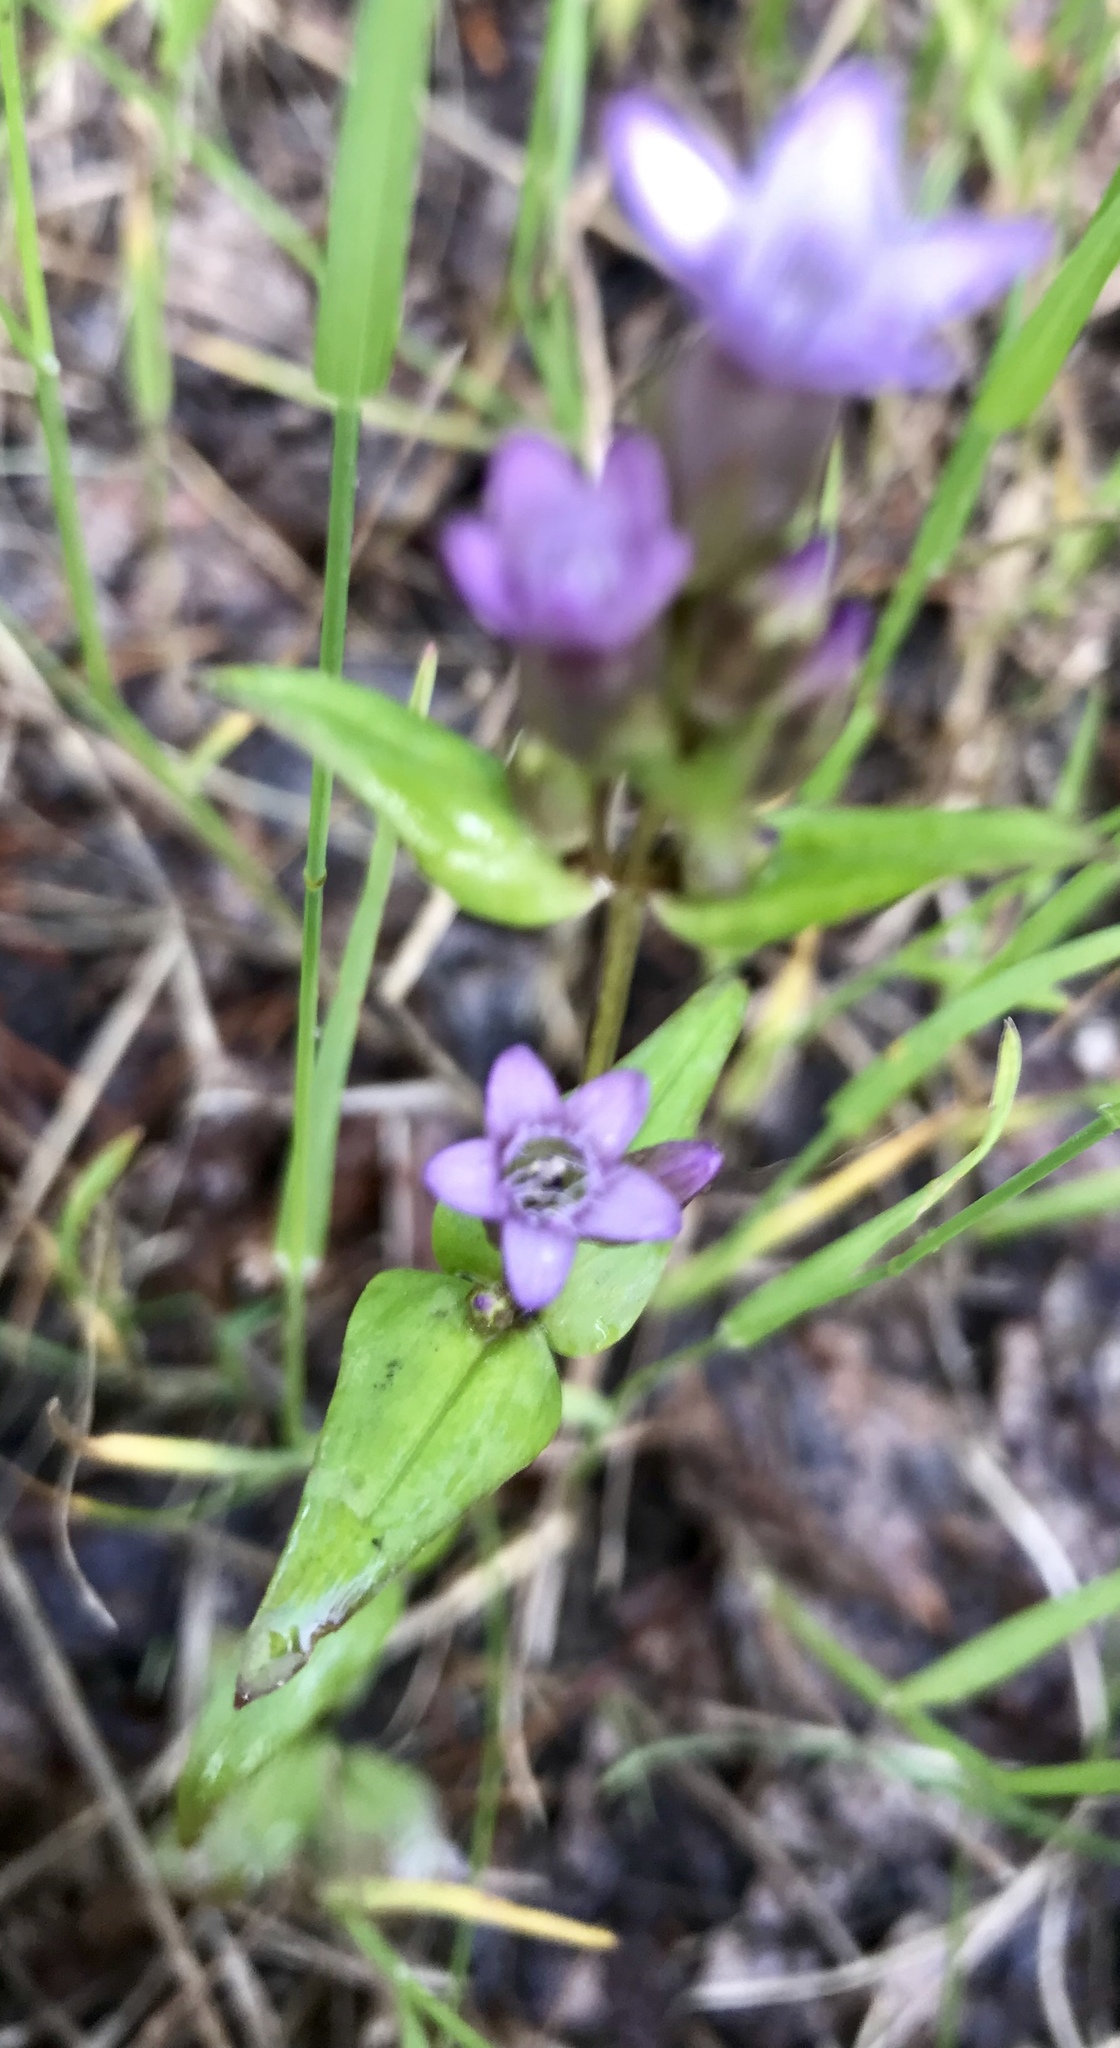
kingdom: Plantae
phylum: Tracheophyta
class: Magnoliopsida
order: Gentianales
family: Gentianaceae
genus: Gentianella
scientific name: Gentianella amarella
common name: Autumn gentian
